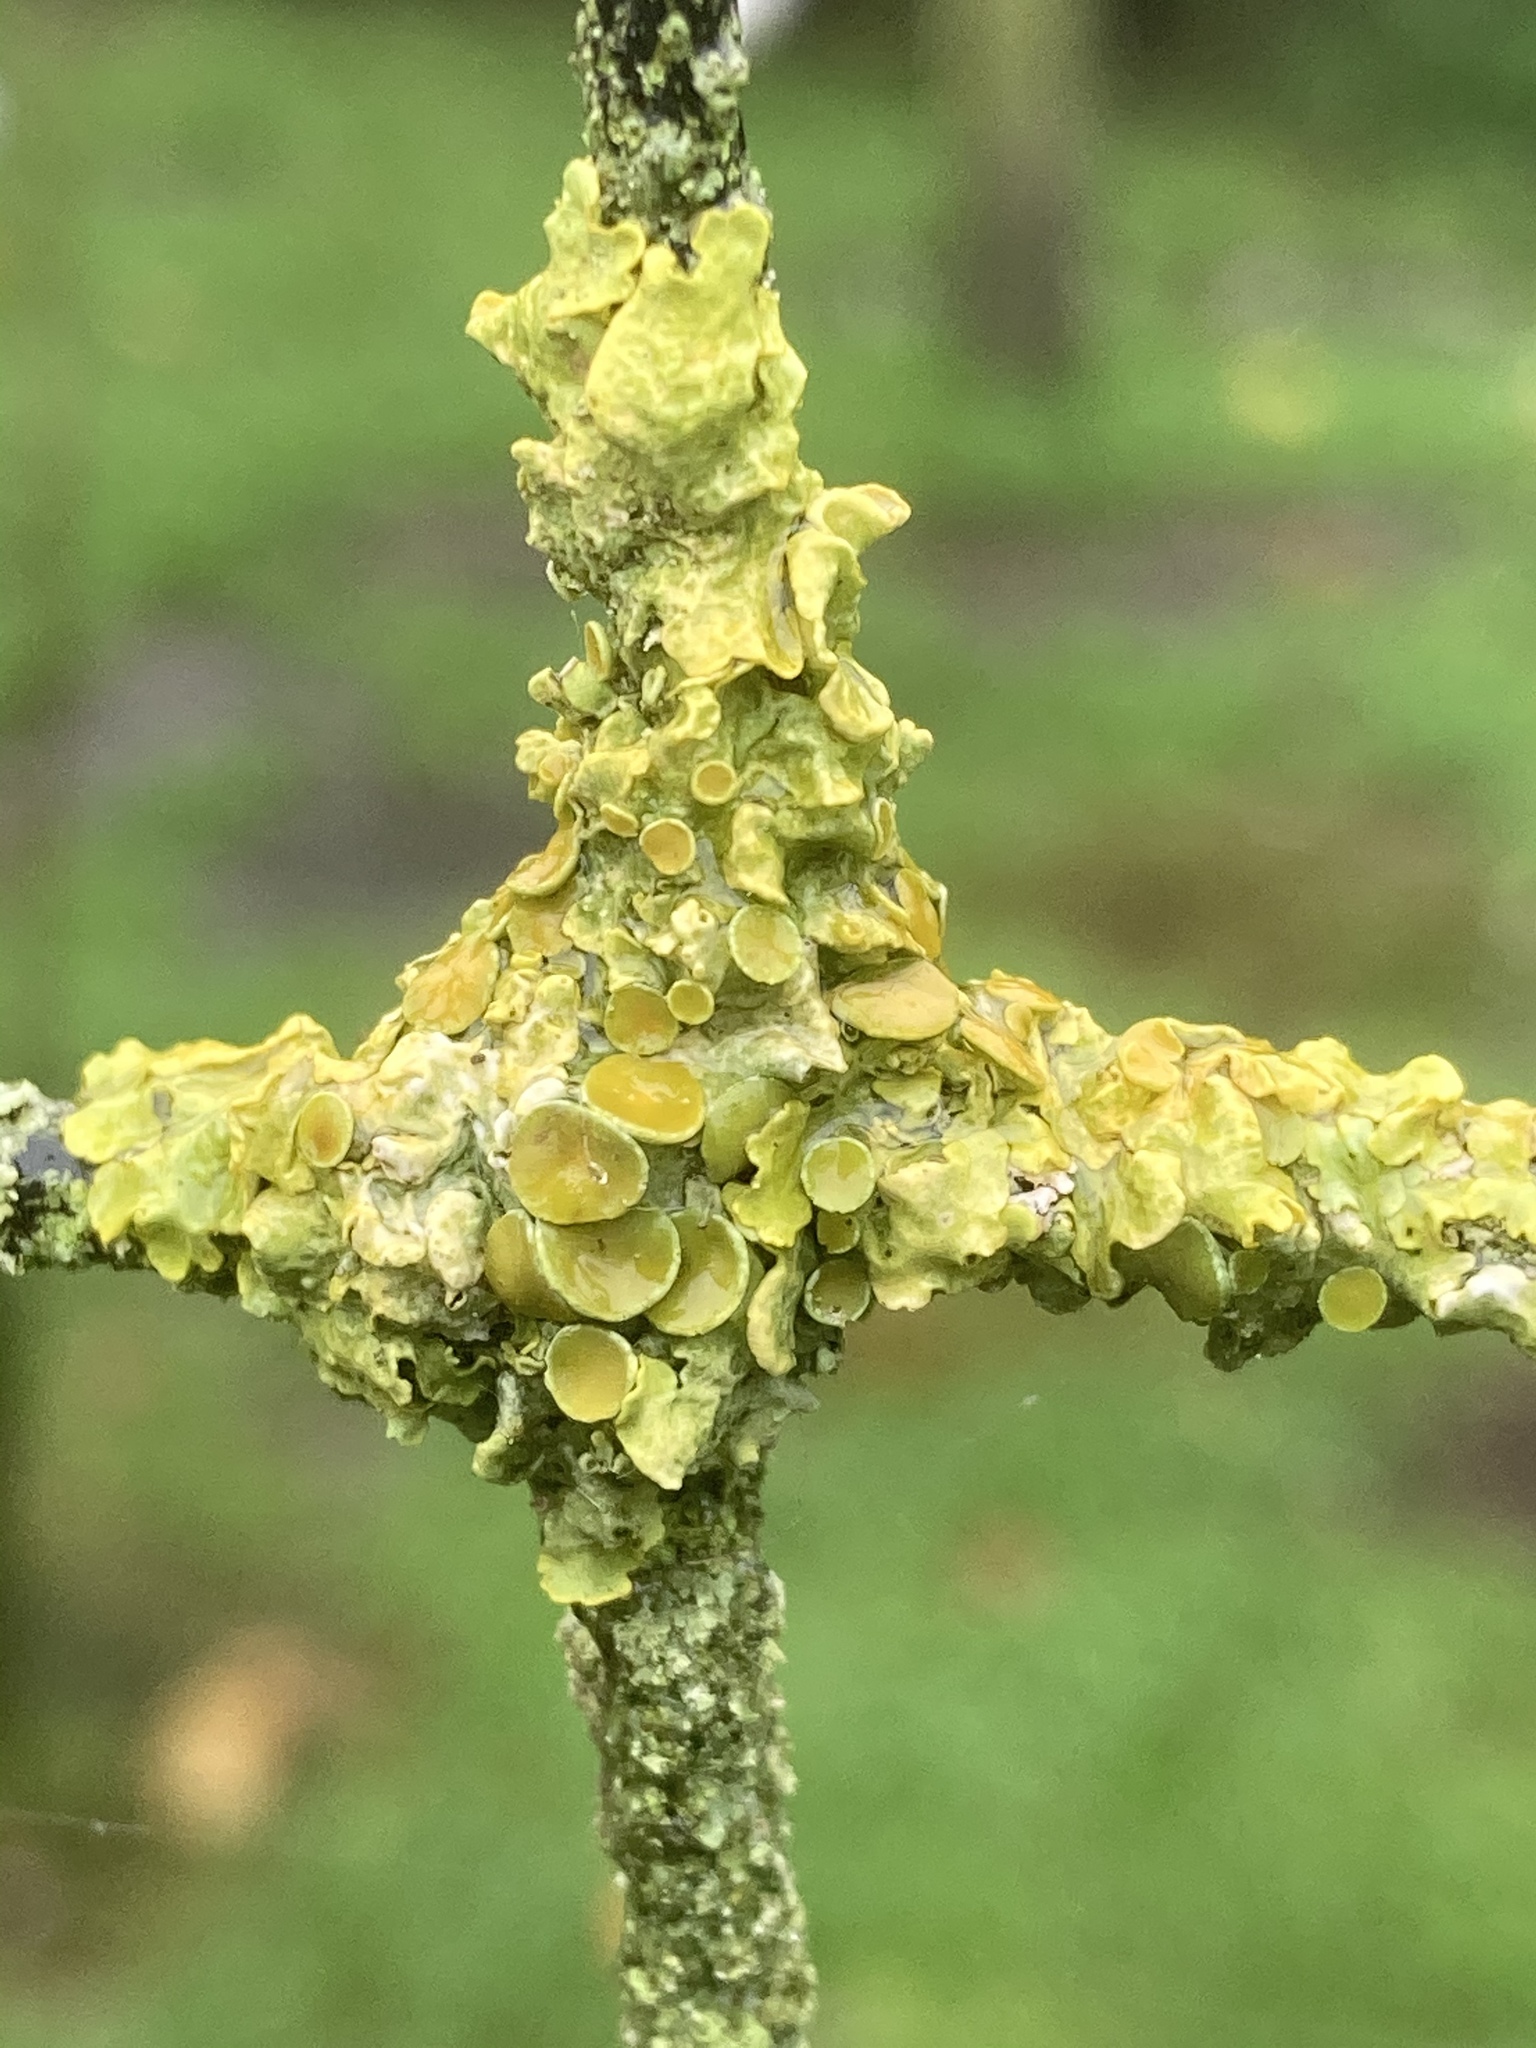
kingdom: Fungi
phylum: Ascomycota
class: Lecanoromycetes
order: Teloschistales
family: Teloschistaceae
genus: Xanthoria
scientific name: Xanthoria parietina
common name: Common orange lichen
